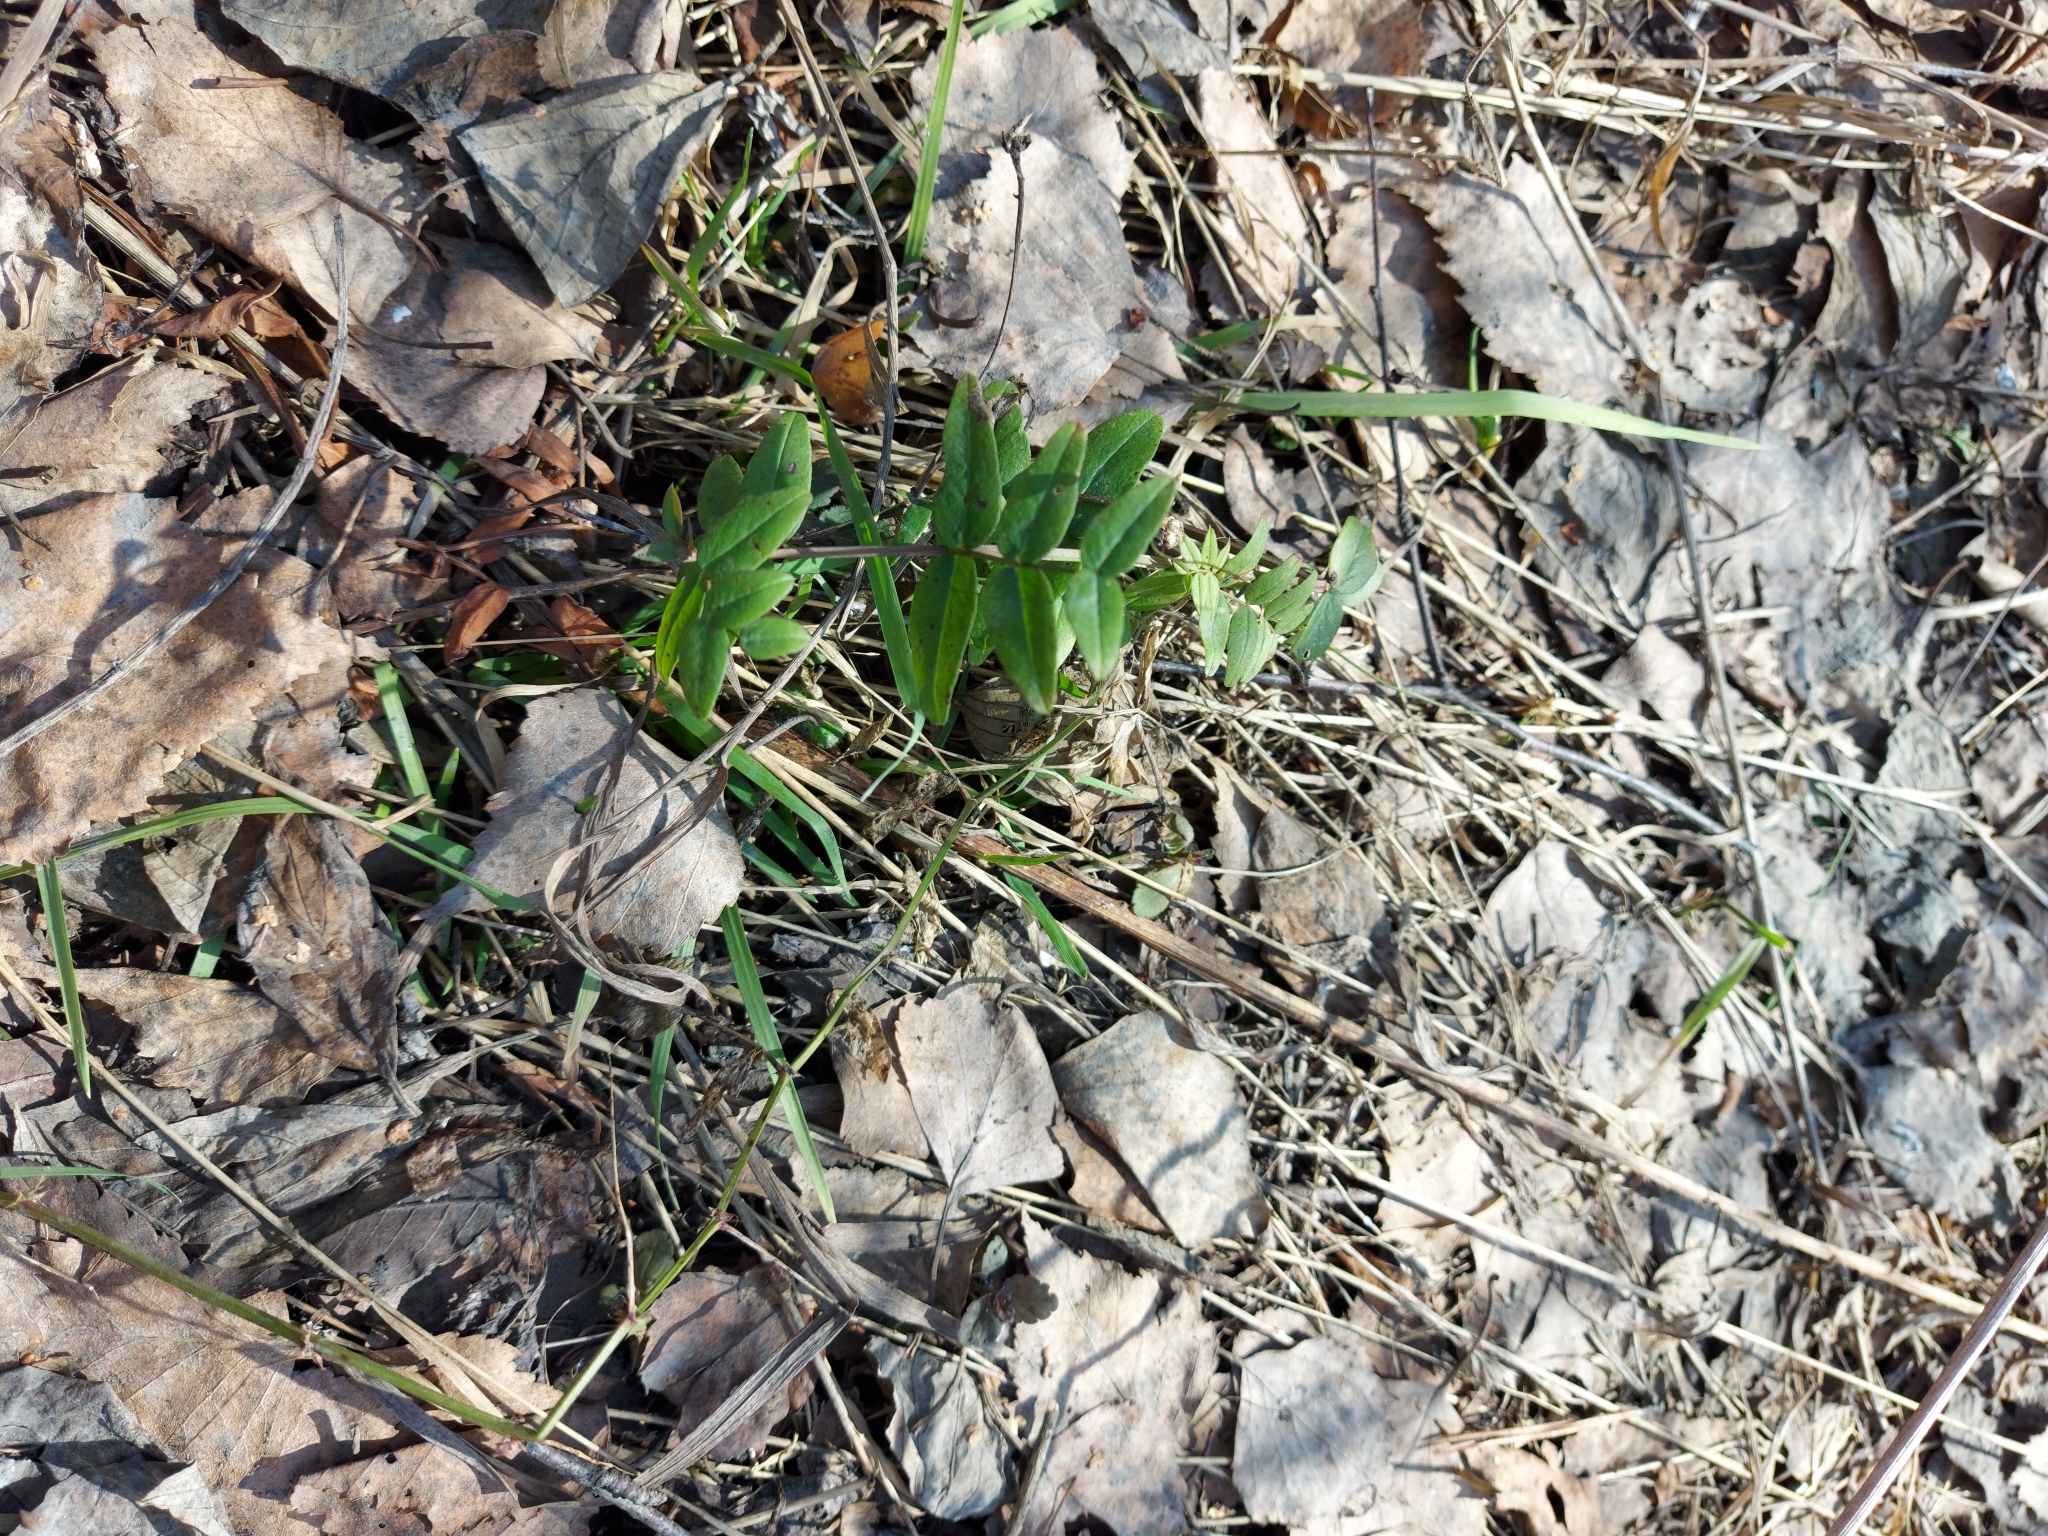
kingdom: Plantae
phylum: Tracheophyta
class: Magnoliopsida
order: Fabales
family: Fabaceae
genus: Vicia
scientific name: Vicia sepium
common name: Bush vetch
